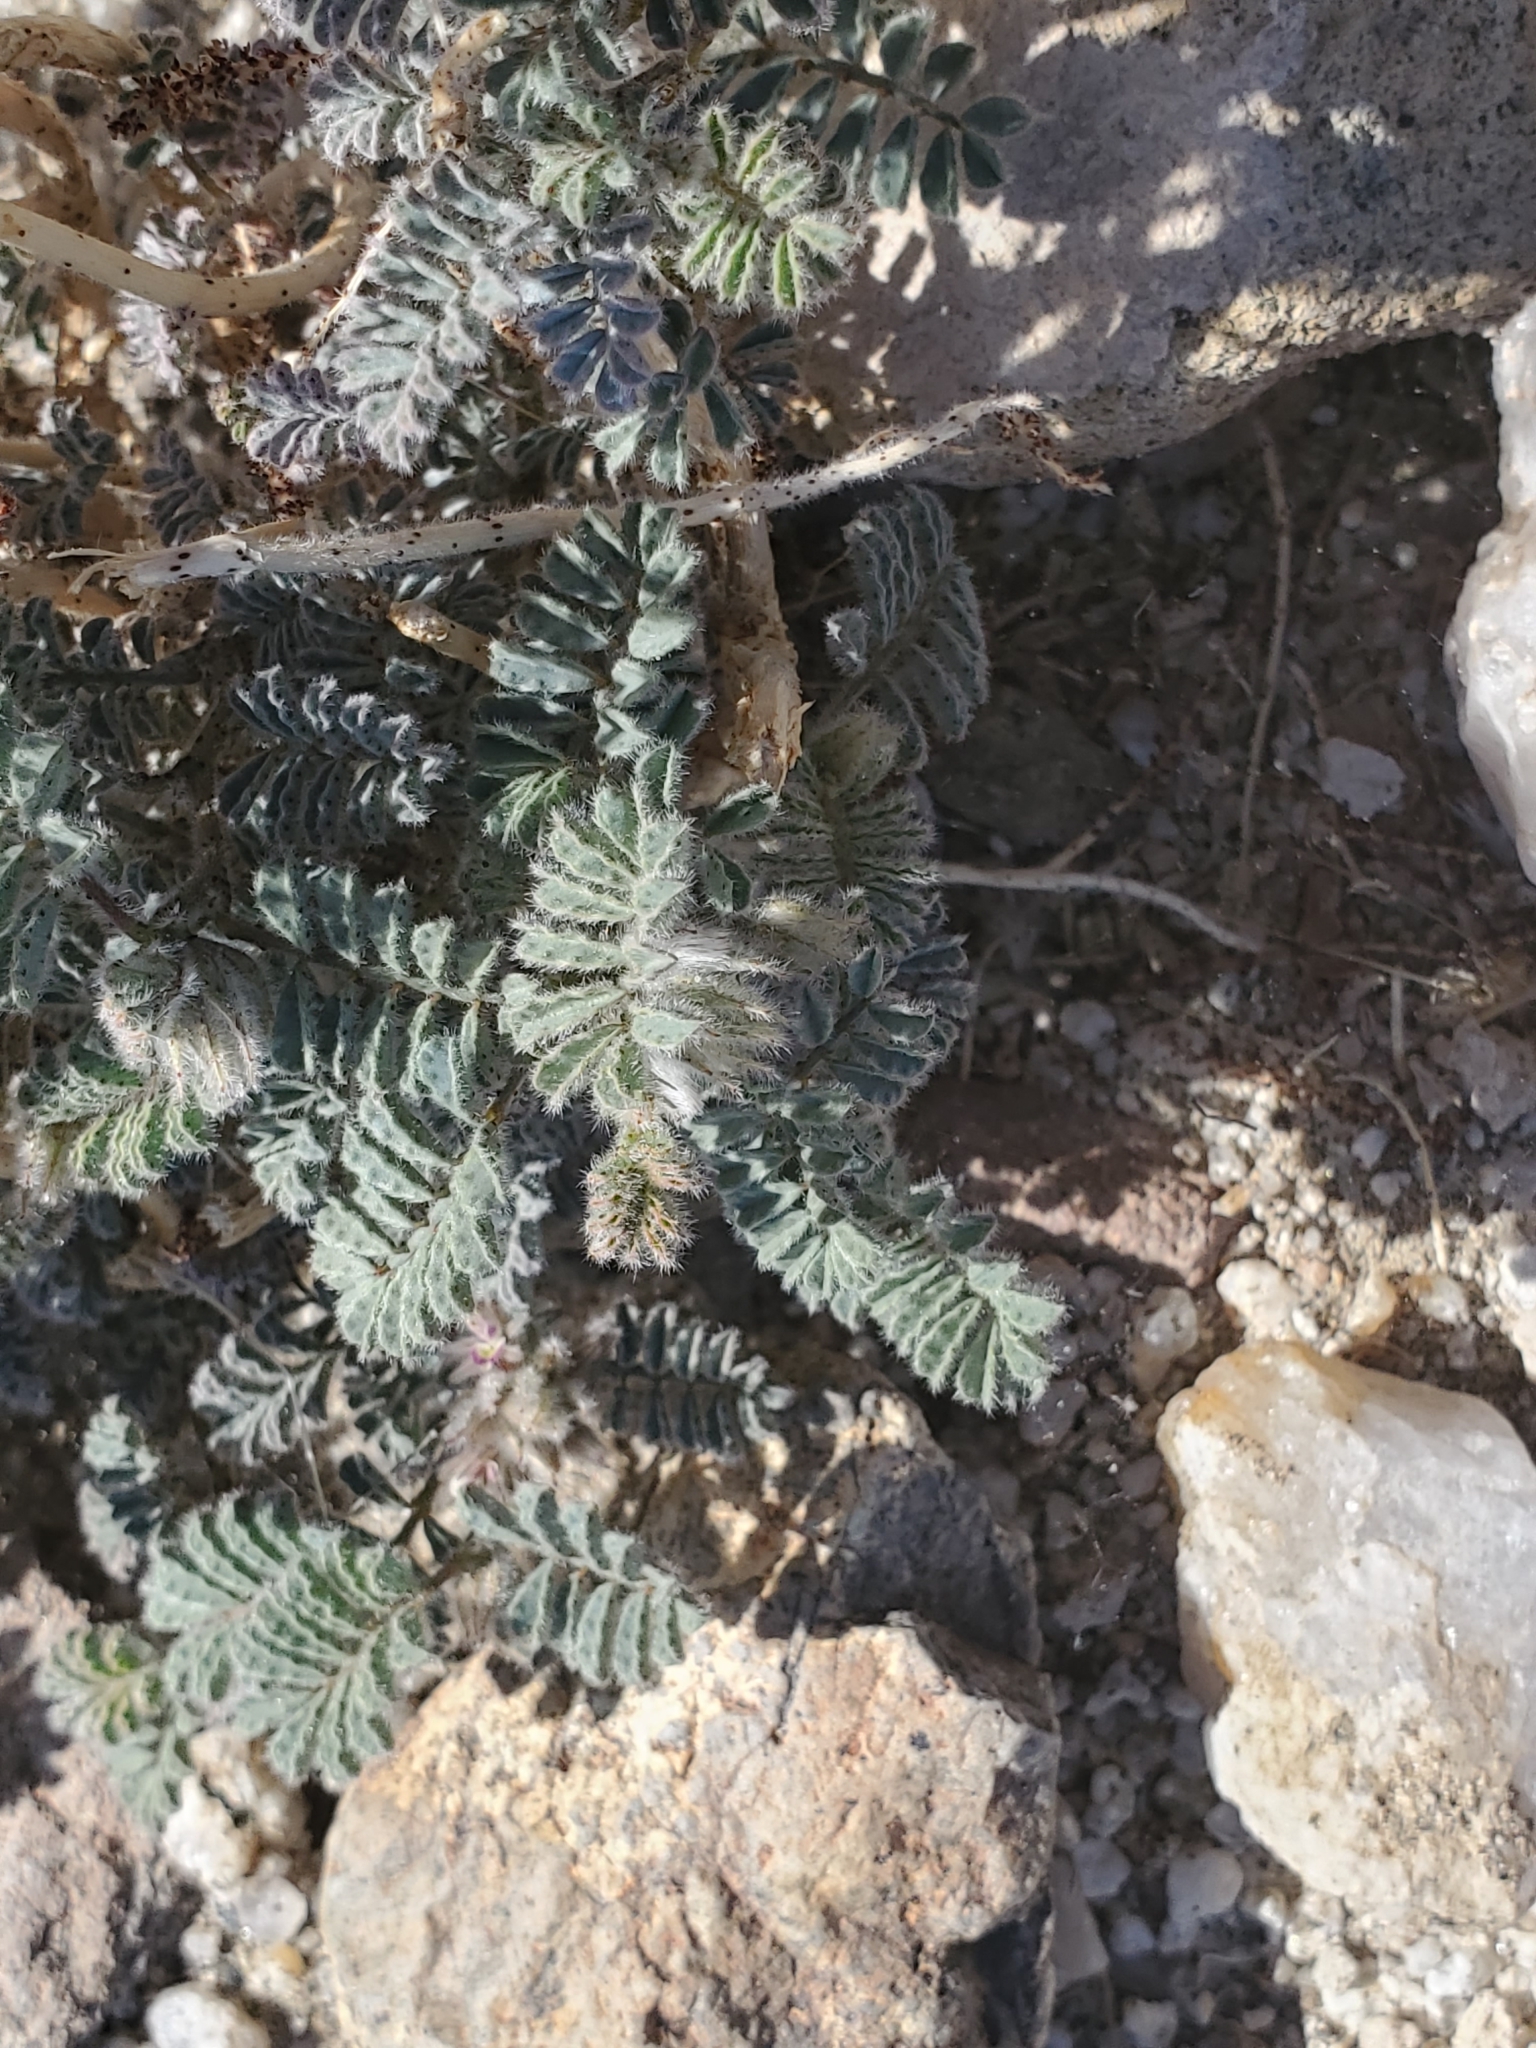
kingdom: Plantae
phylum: Tracheophyta
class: Magnoliopsida
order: Fabales
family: Fabaceae
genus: Dalea
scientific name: Dalea mollissima
